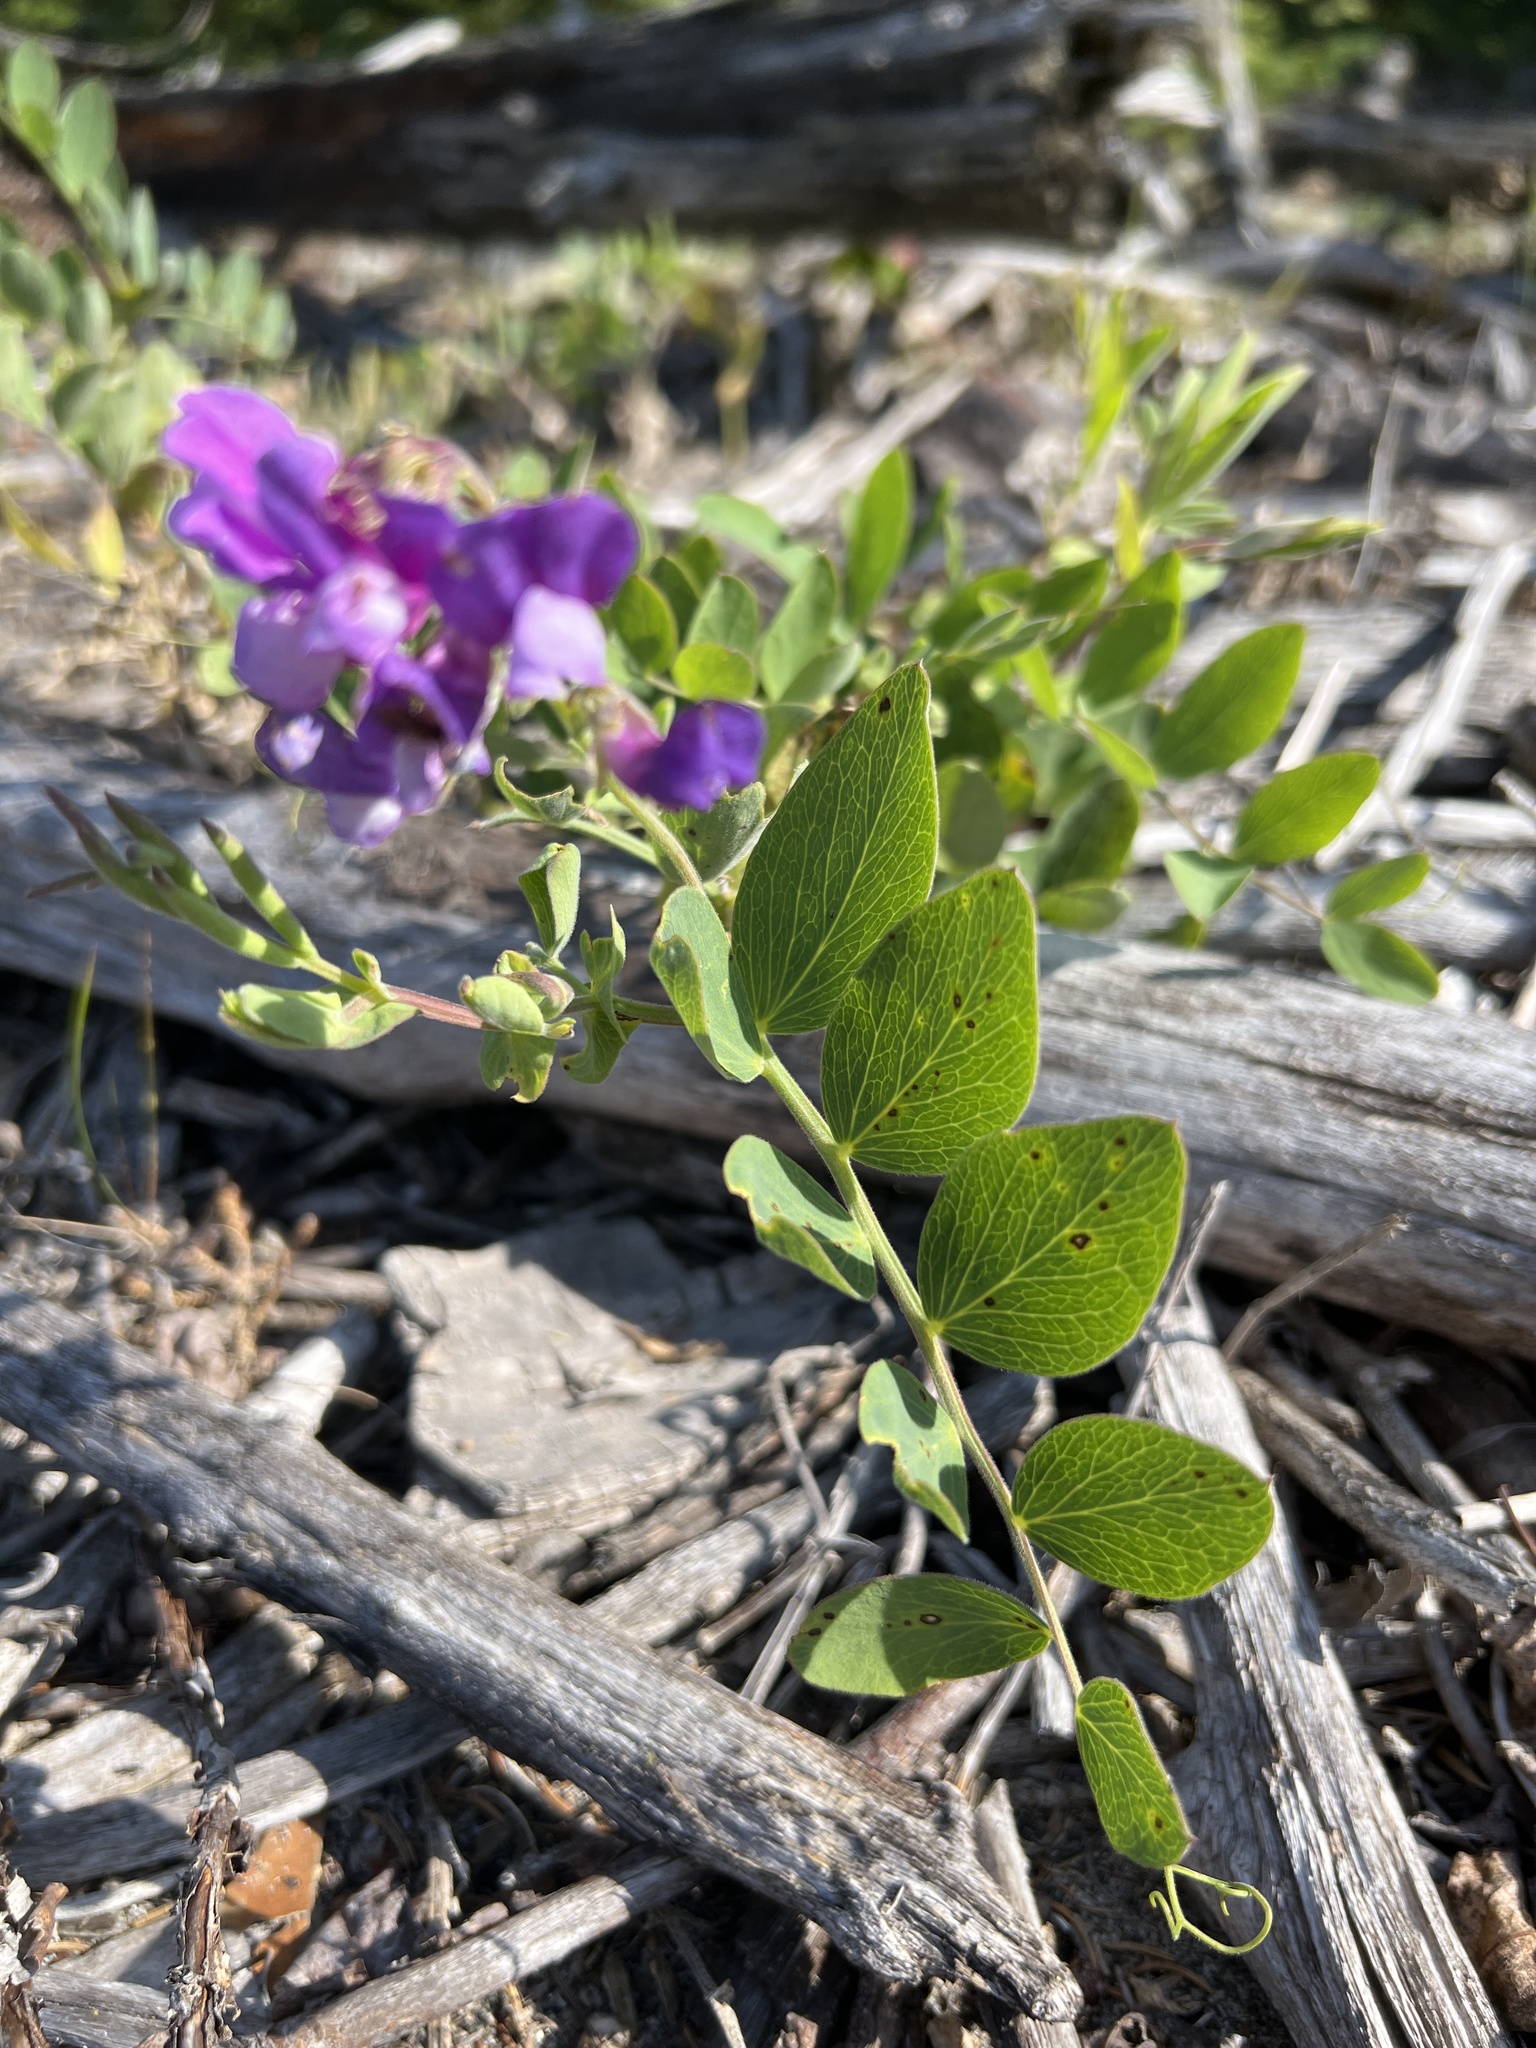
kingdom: Plantae
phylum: Tracheophyta
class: Magnoliopsida
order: Fabales
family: Fabaceae
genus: Lathyrus
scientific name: Lathyrus japonicus
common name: Sea pea
